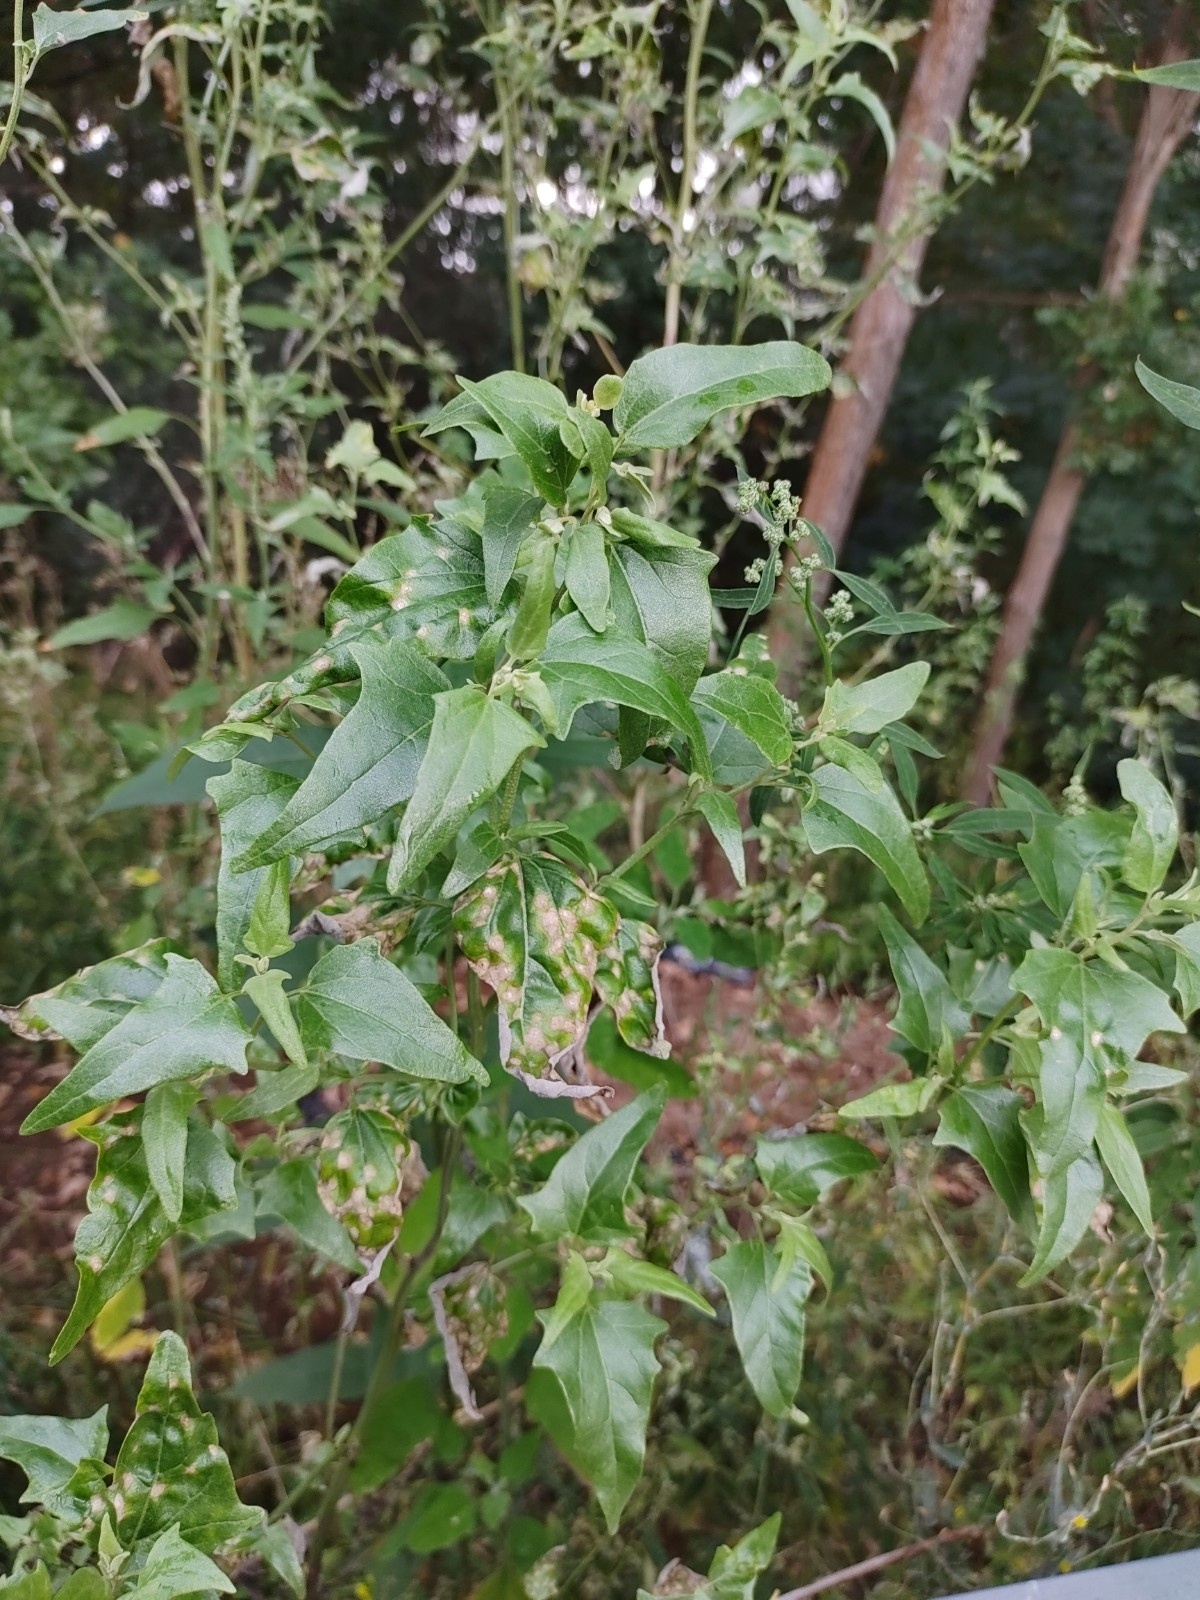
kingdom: Plantae
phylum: Tracheophyta
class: Magnoliopsida
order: Caryophyllales
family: Amaranthaceae
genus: Atriplex
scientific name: Atriplex sagittata
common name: Purple orache
